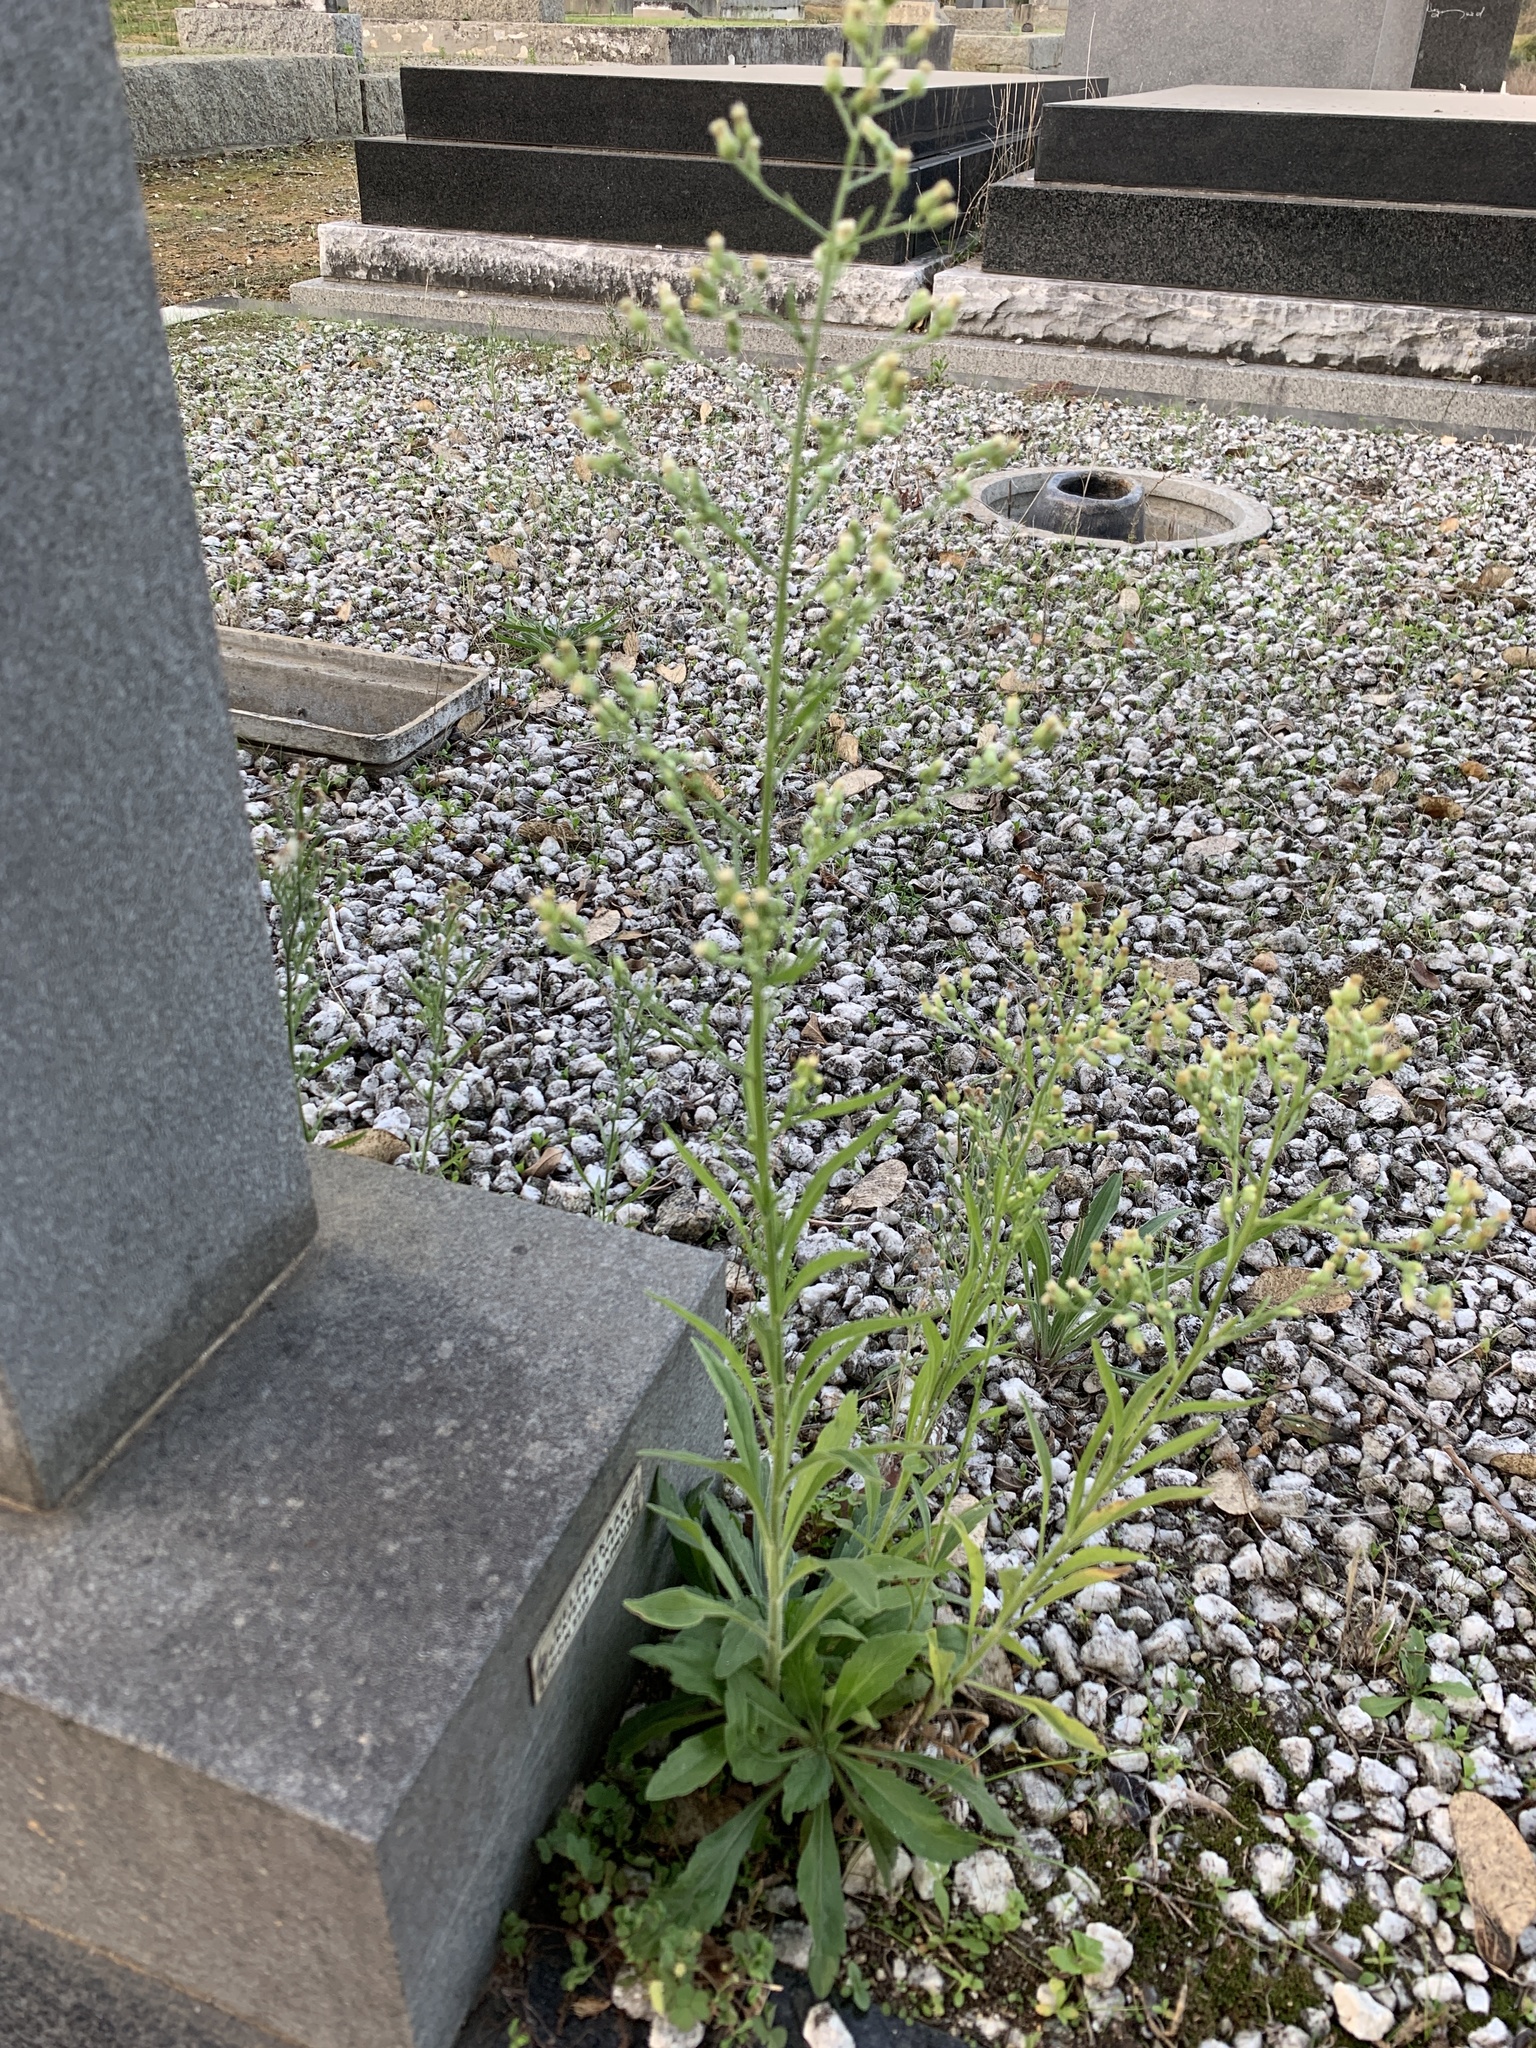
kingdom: Plantae
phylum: Tracheophyta
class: Magnoliopsida
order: Asterales
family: Asteraceae
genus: Erigeron
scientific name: Erigeron sumatrensis
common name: Daisy
